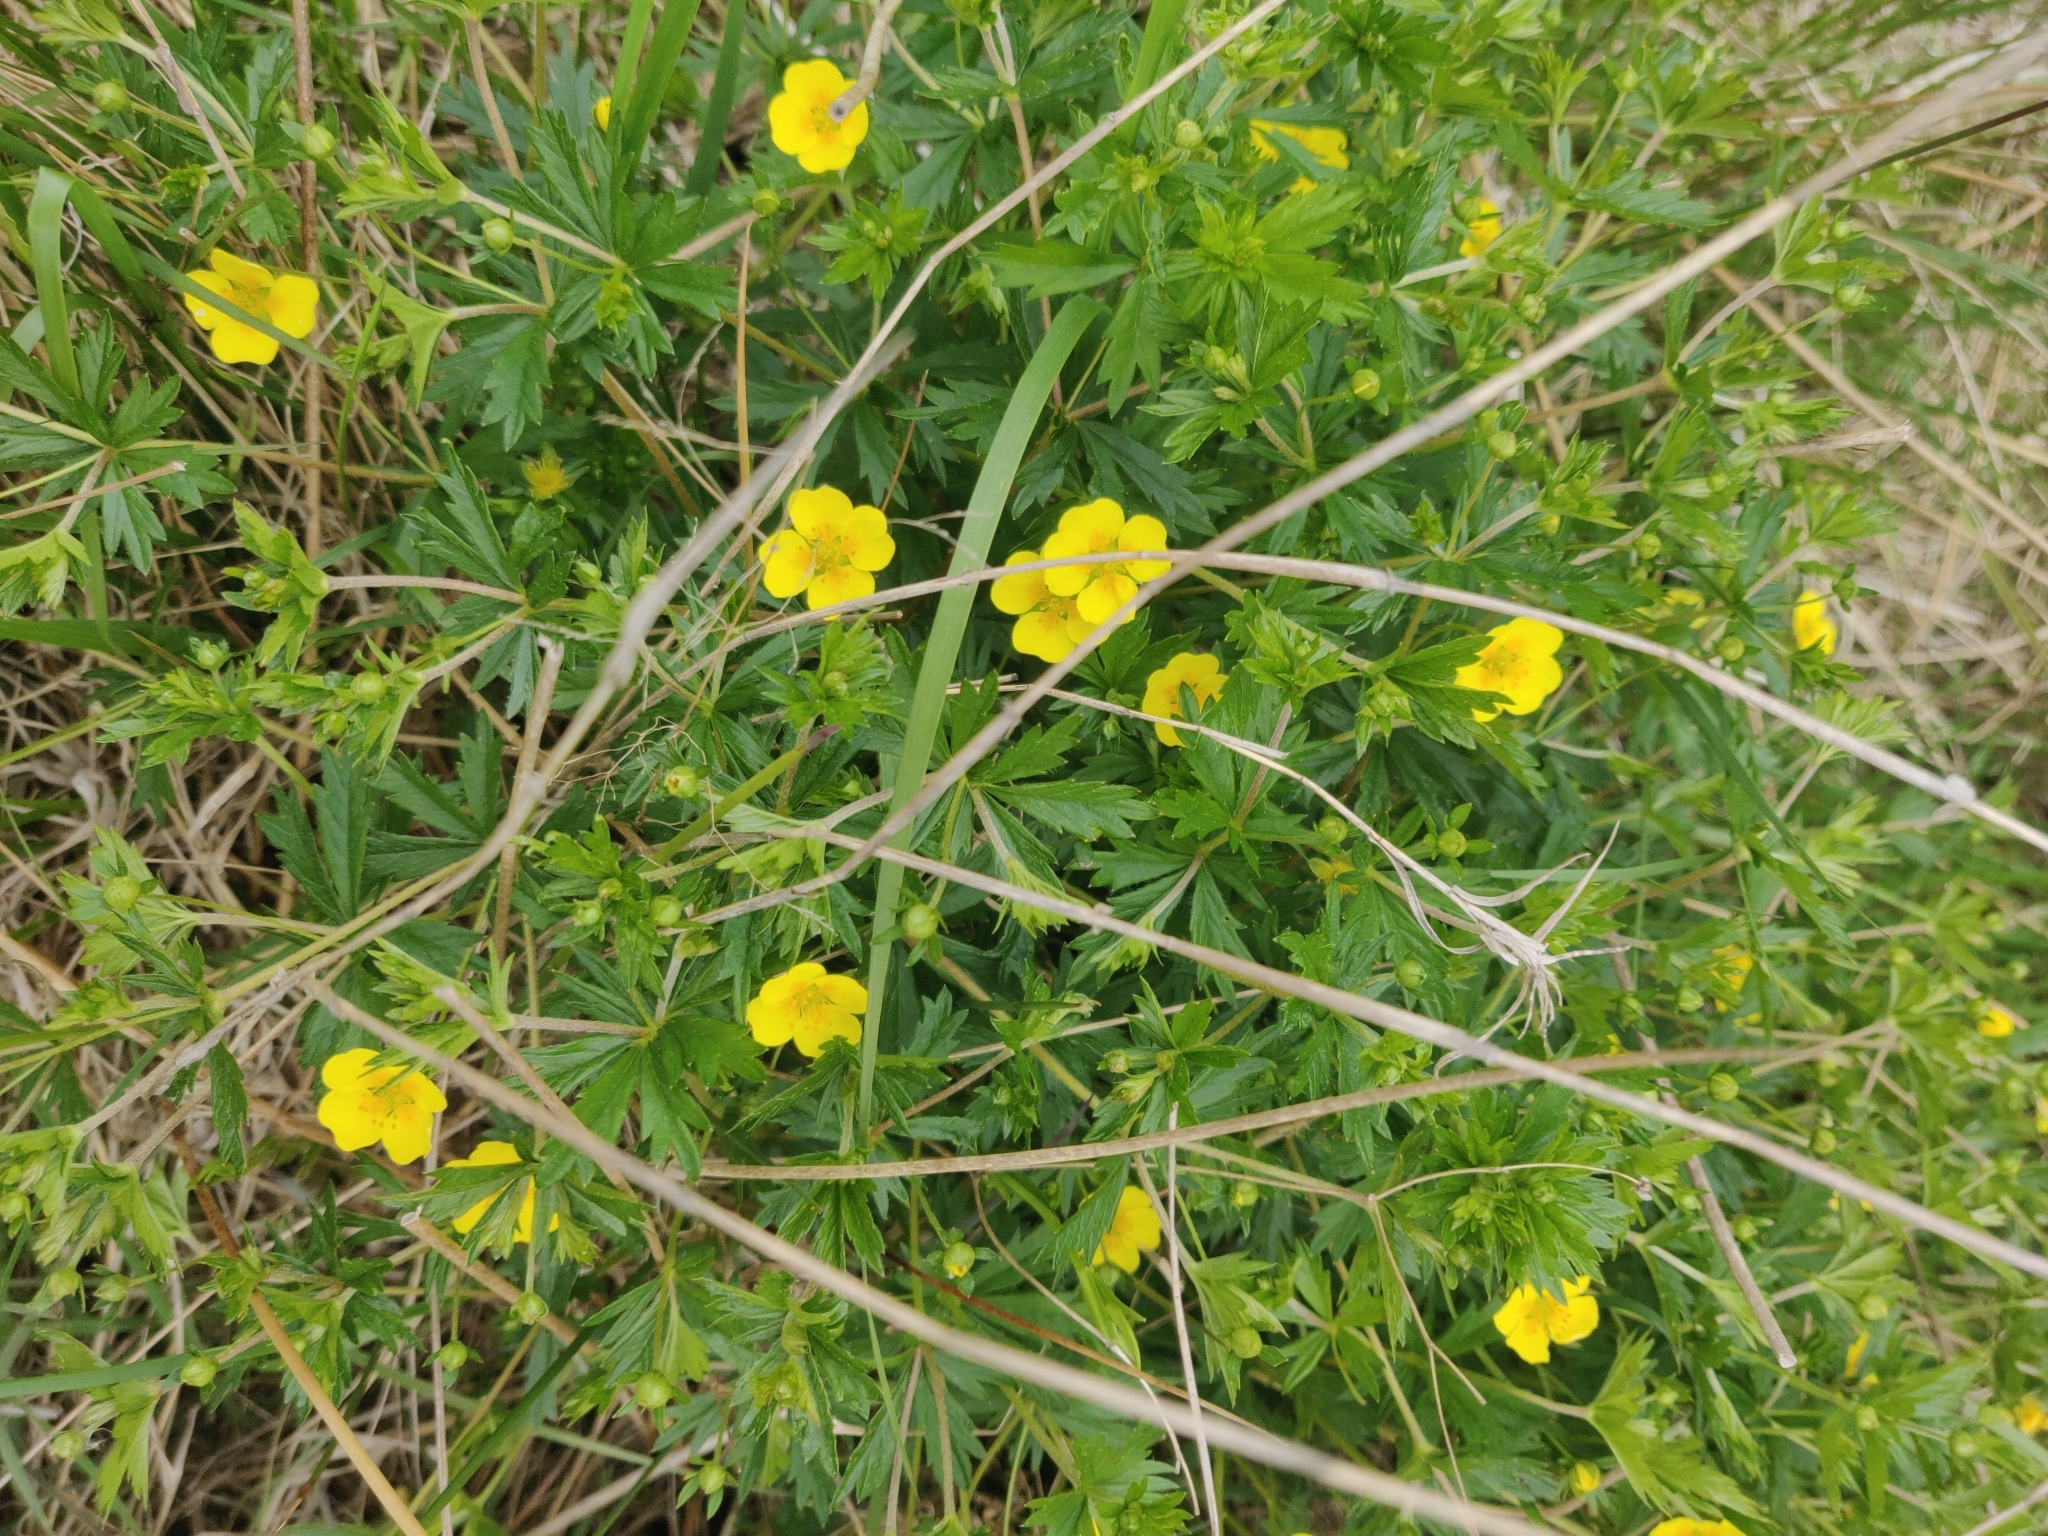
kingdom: Plantae
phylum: Tracheophyta
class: Magnoliopsida
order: Rosales
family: Rosaceae
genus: Potentilla
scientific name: Potentilla erecta
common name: Tormentil
